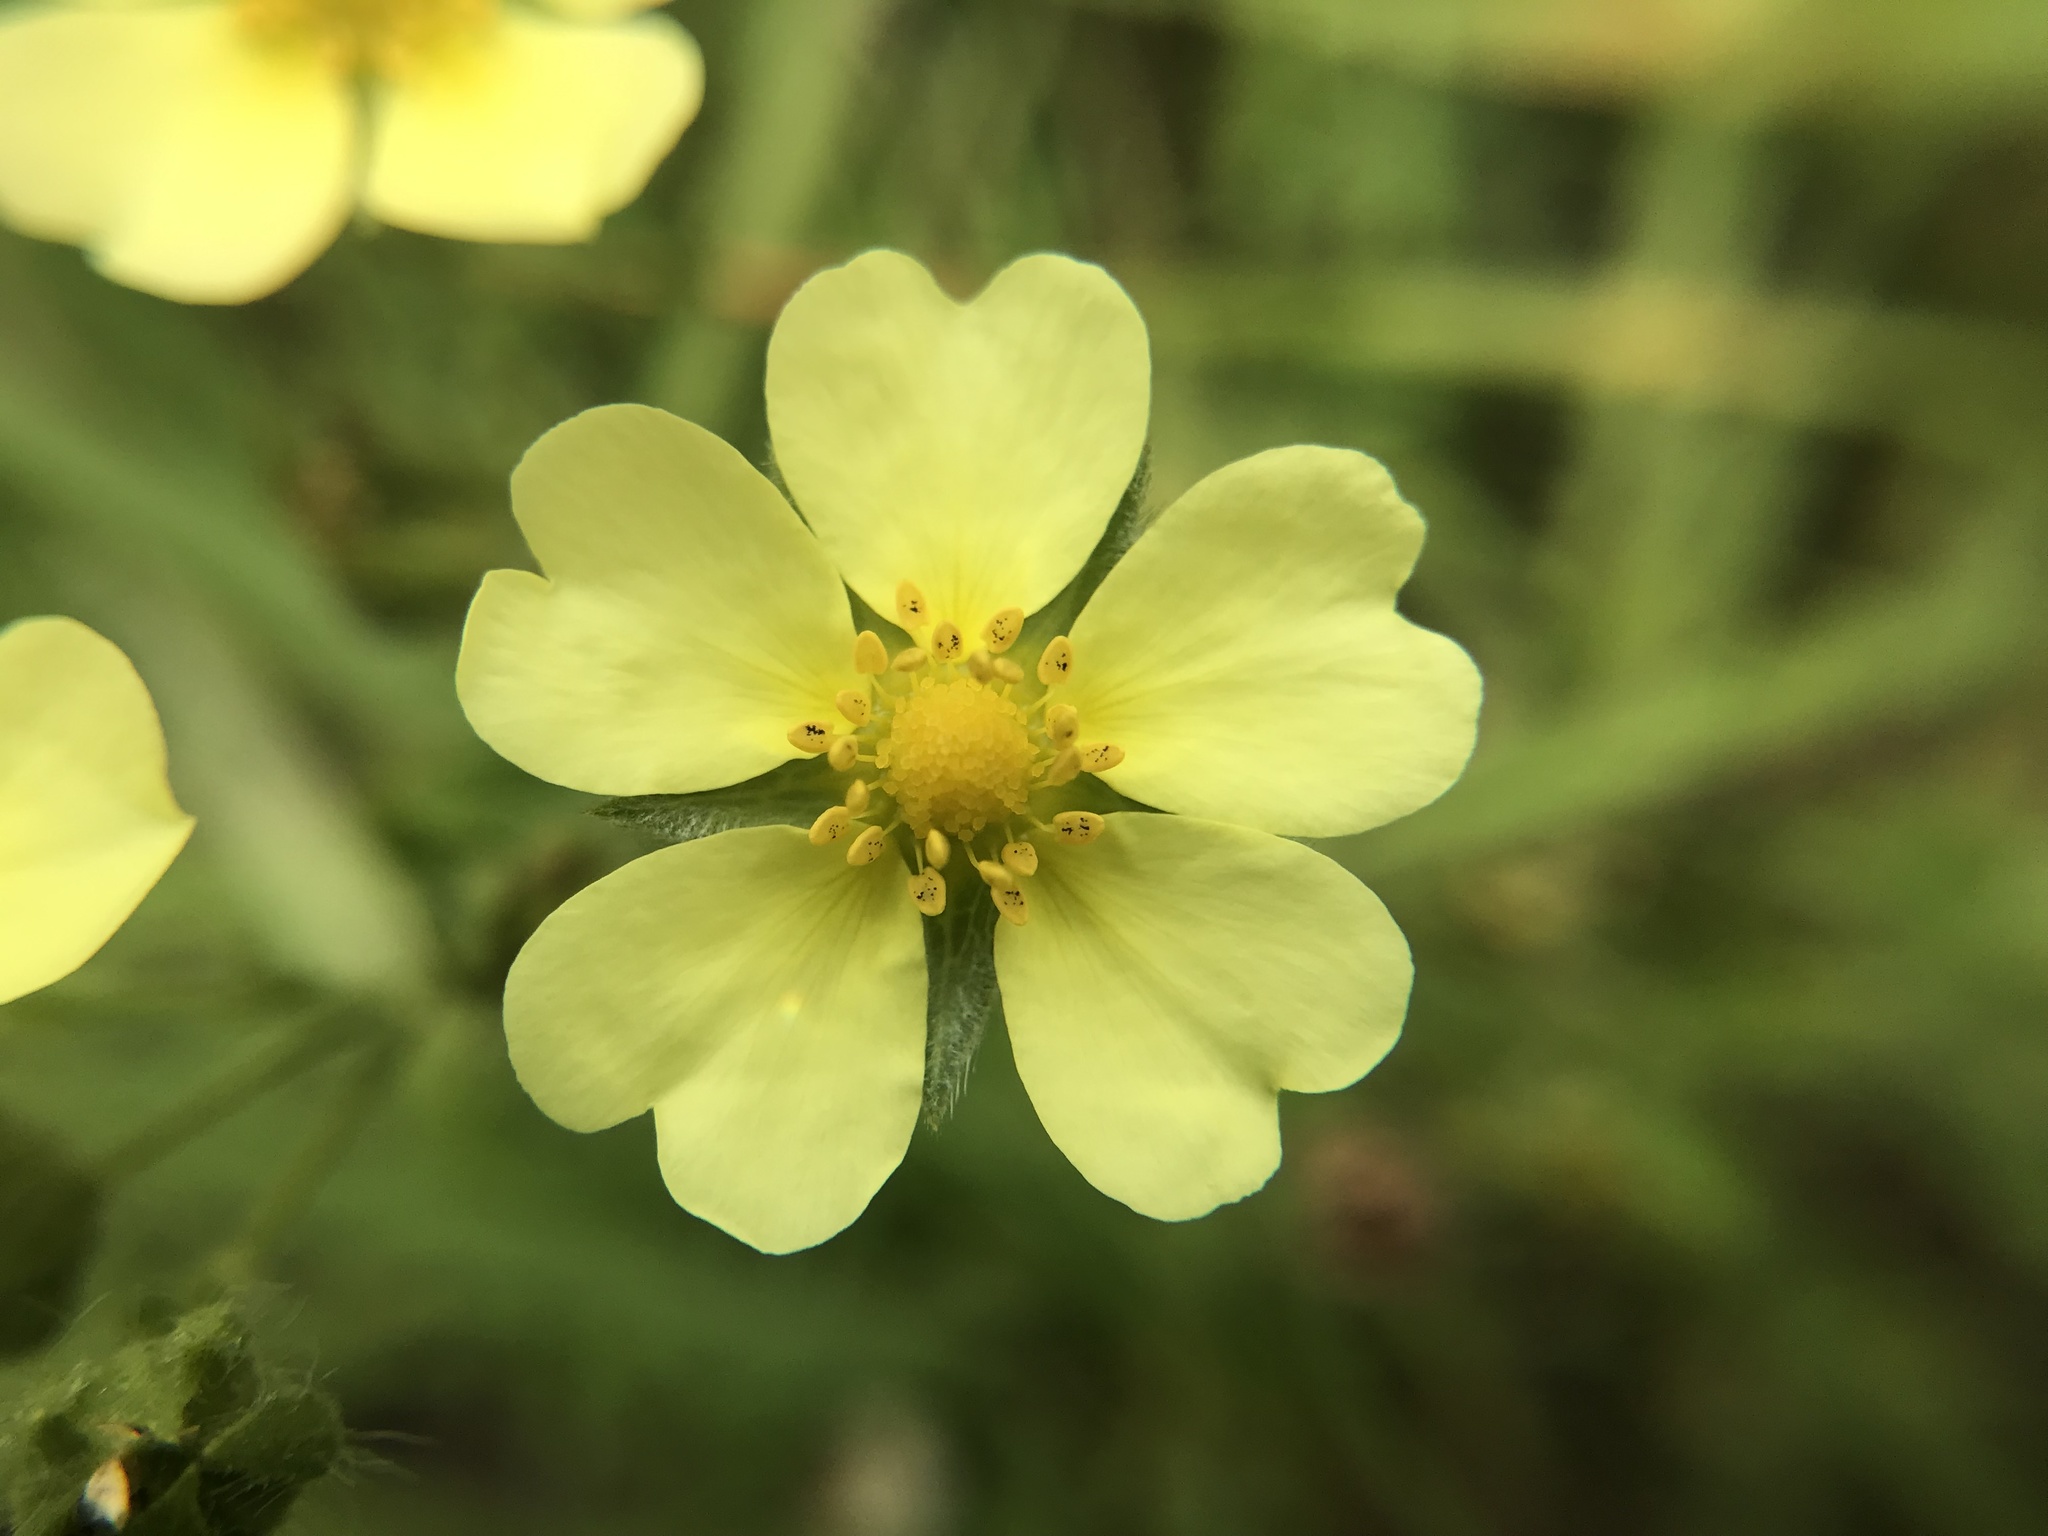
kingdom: Plantae
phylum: Tracheophyta
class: Magnoliopsida
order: Rosales
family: Rosaceae
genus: Potentilla
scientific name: Potentilla recta
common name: Sulphur cinquefoil
